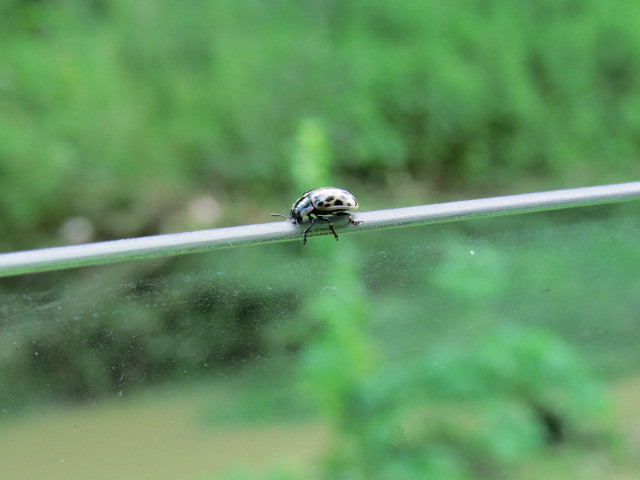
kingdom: Animalia
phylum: Arthropoda
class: Insecta
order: Coleoptera
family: Chrysomelidae
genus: Chrysomela
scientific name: Chrysomela vigintipunctata
